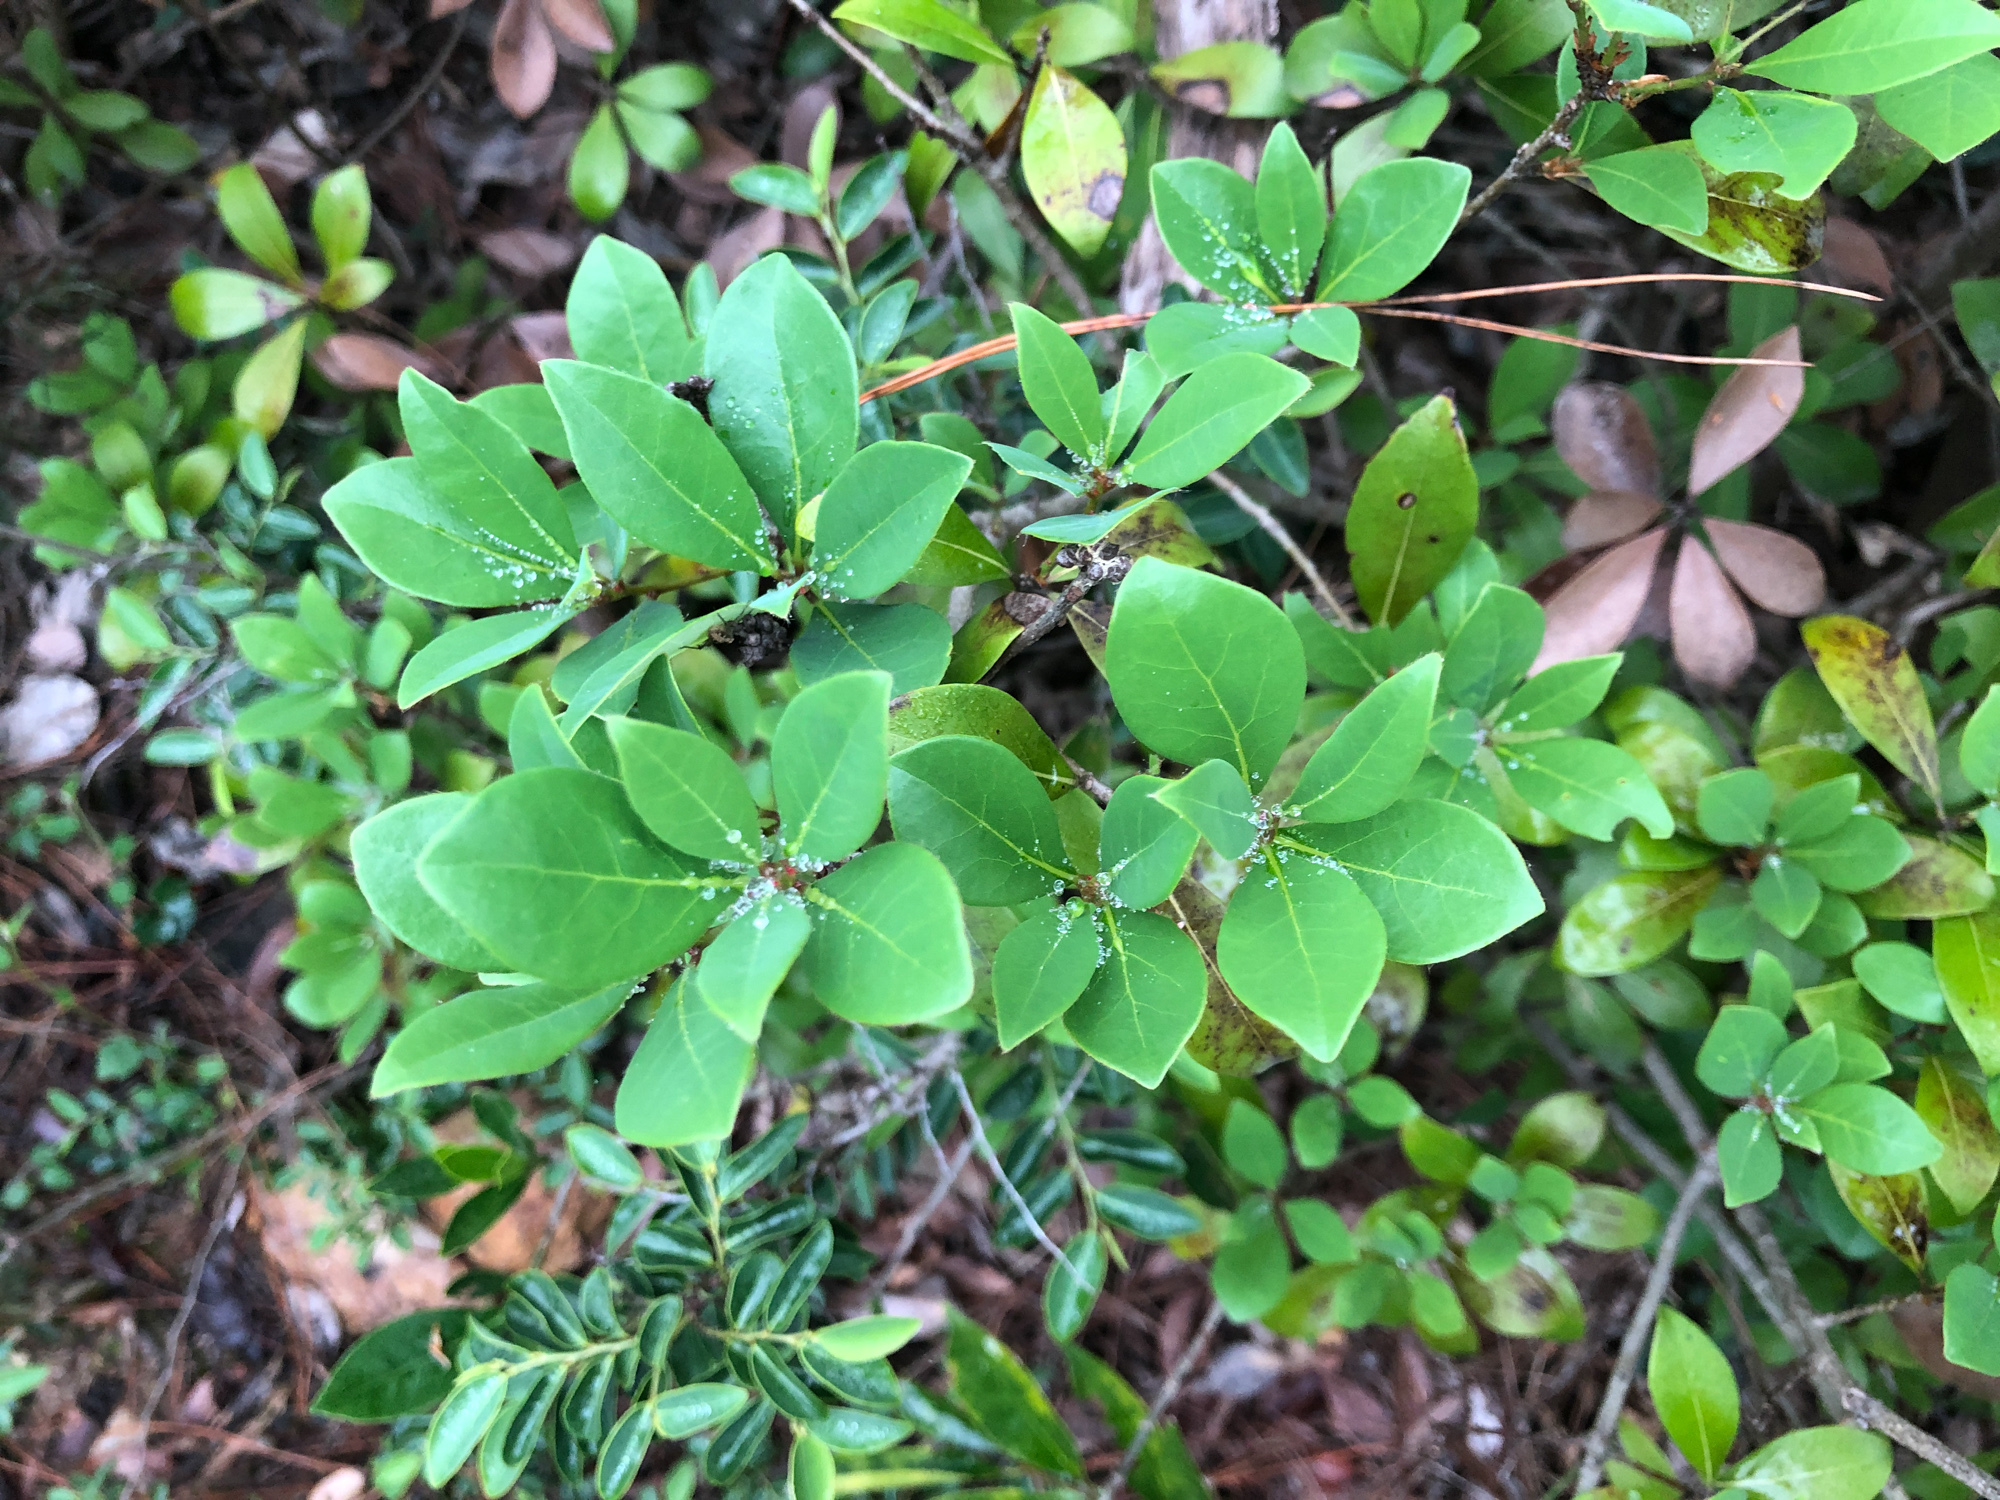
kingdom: Plantae
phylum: Tracheophyta
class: Magnoliopsida
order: Laurales
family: Lauraceae
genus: Litsea
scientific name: Litsea rotundifolia
